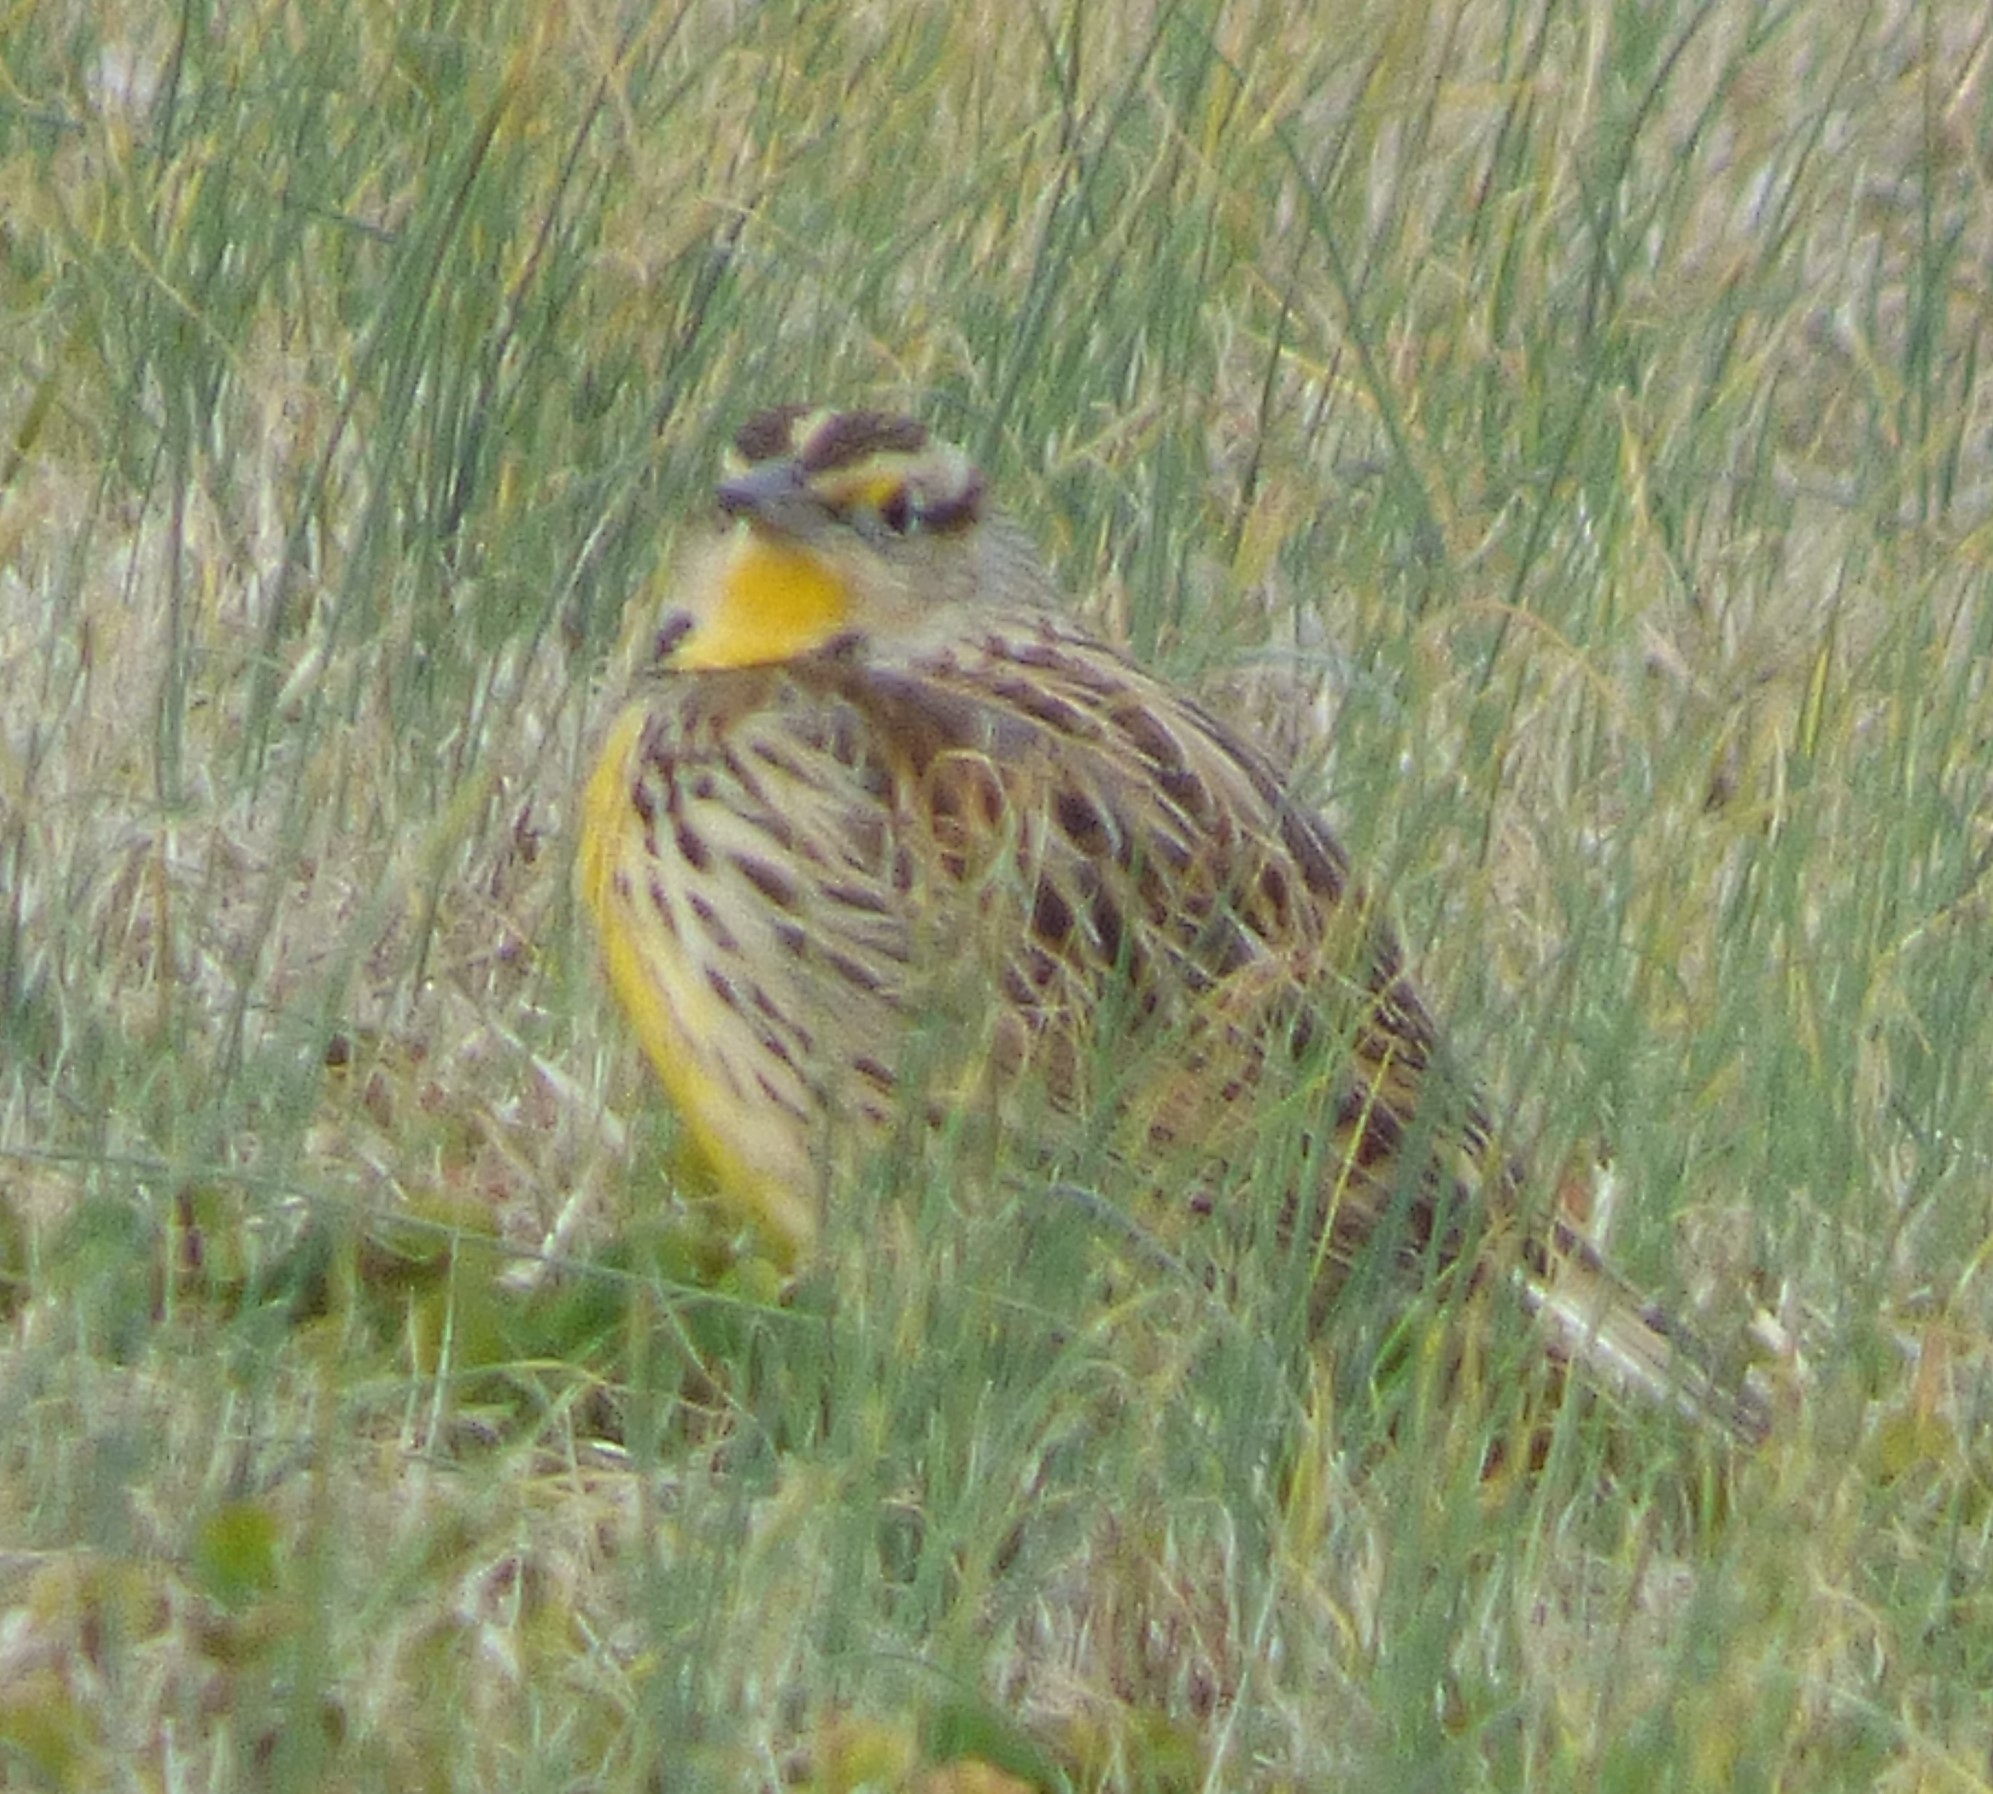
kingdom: Animalia
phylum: Chordata
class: Aves
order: Passeriformes
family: Icteridae
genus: Sturnella
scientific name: Sturnella magna
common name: Eastern meadowlark
